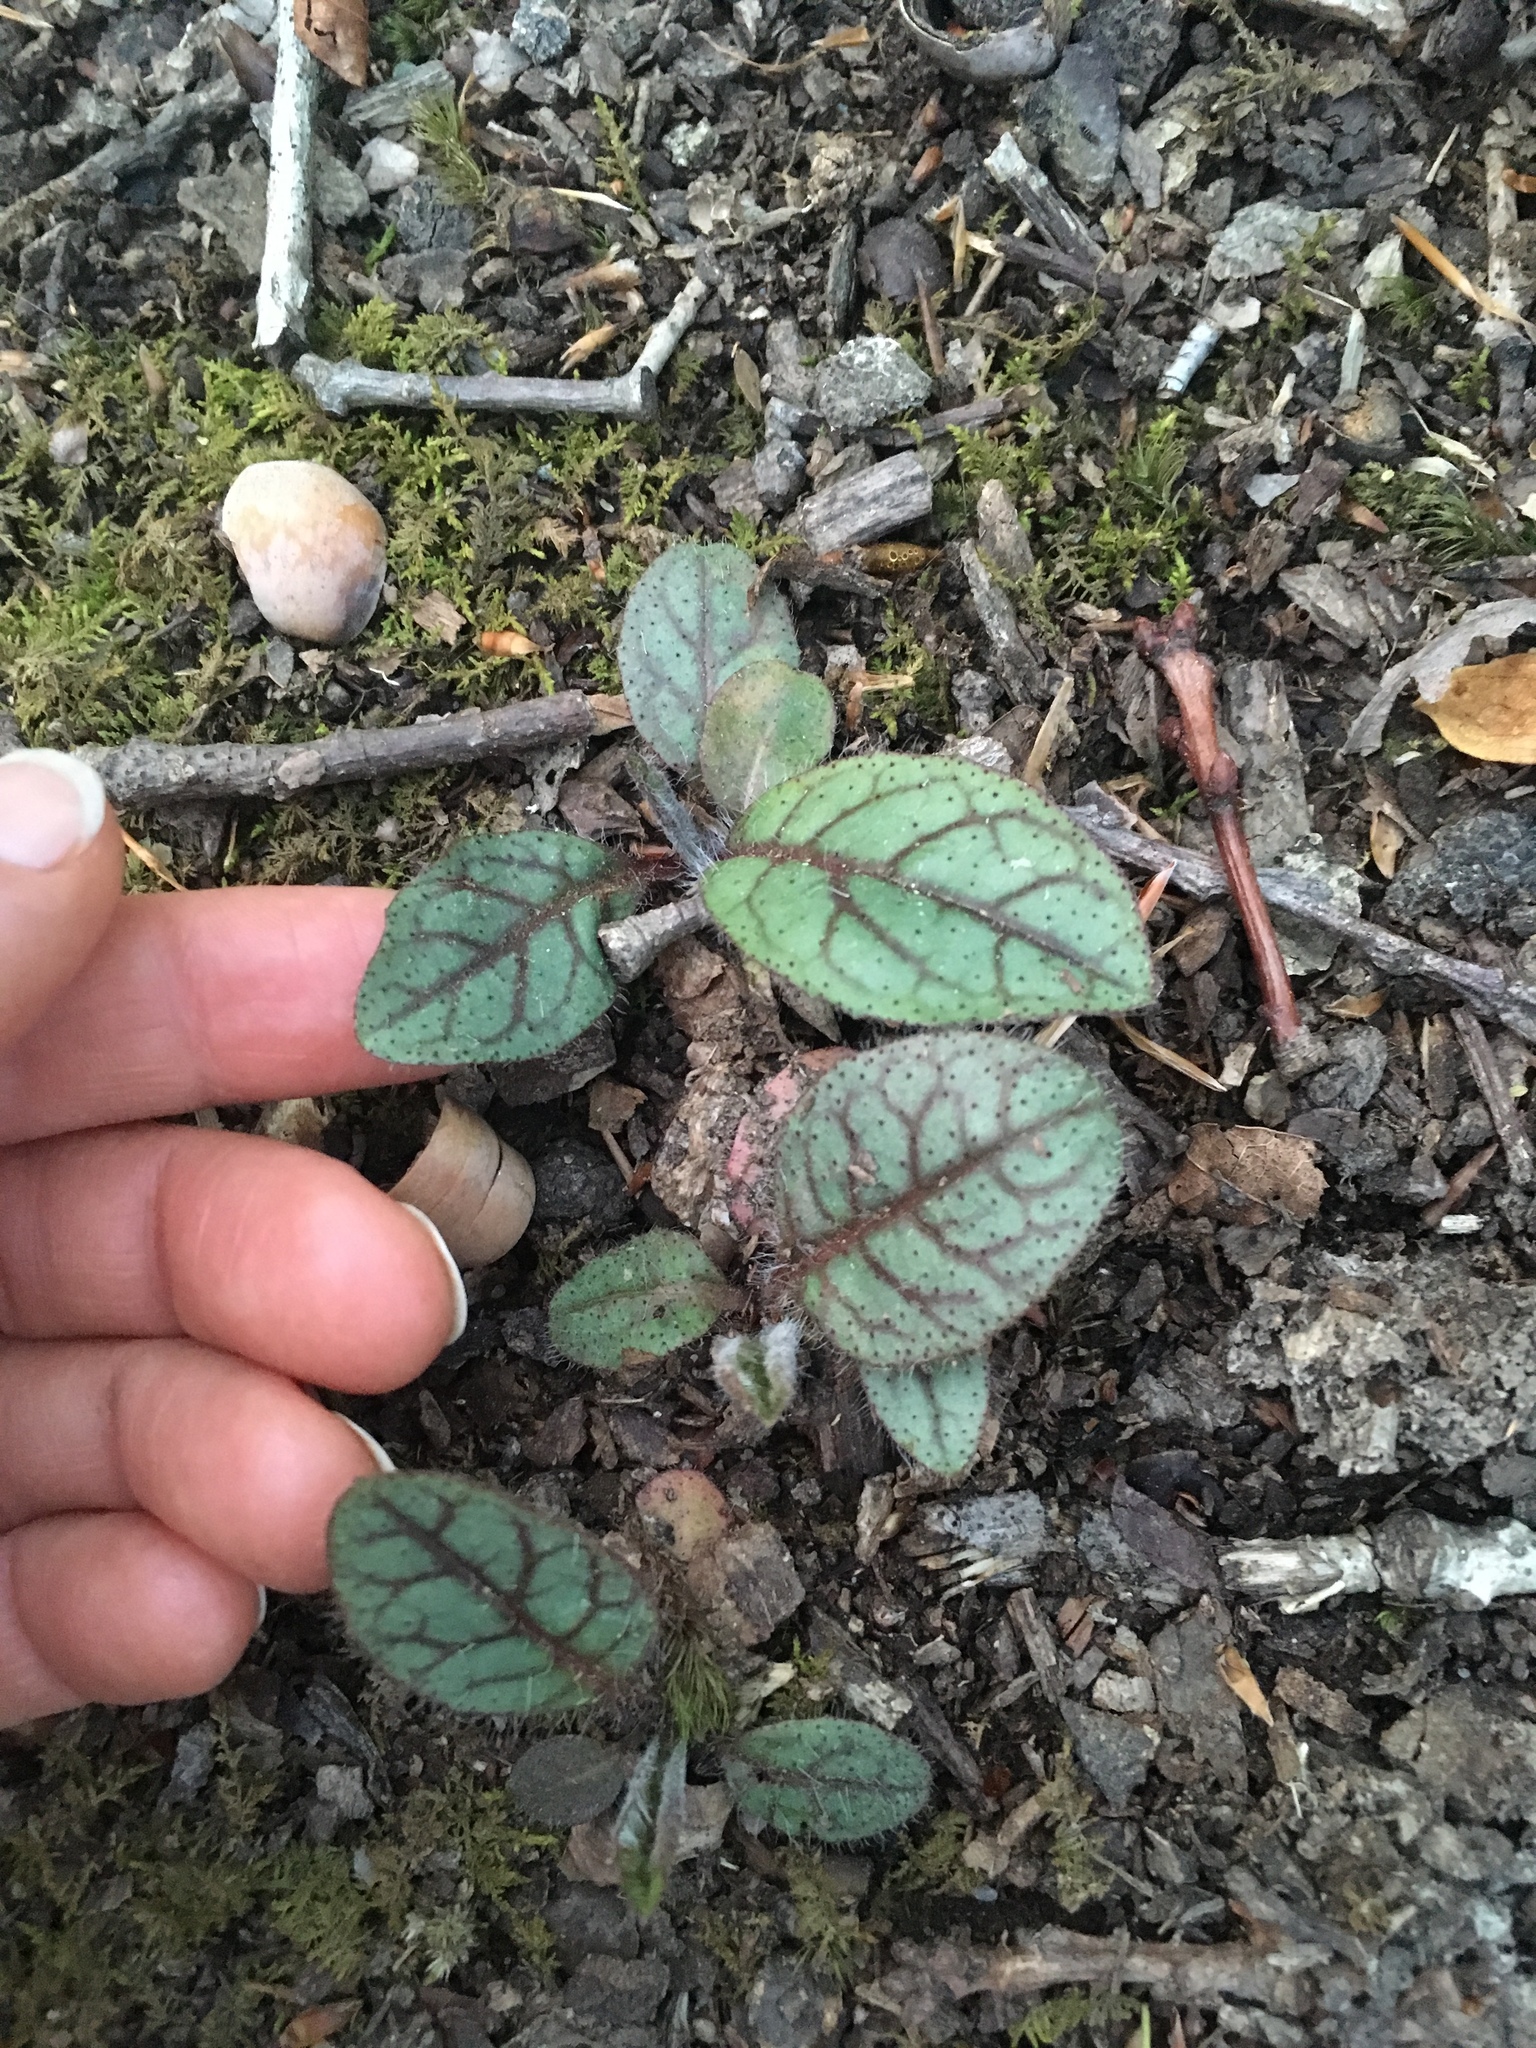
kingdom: Plantae
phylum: Tracheophyta
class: Magnoliopsida
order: Asterales
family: Asteraceae
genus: Hieracium
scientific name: Hieracium venosum
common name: Rattlesnake hawkweed
